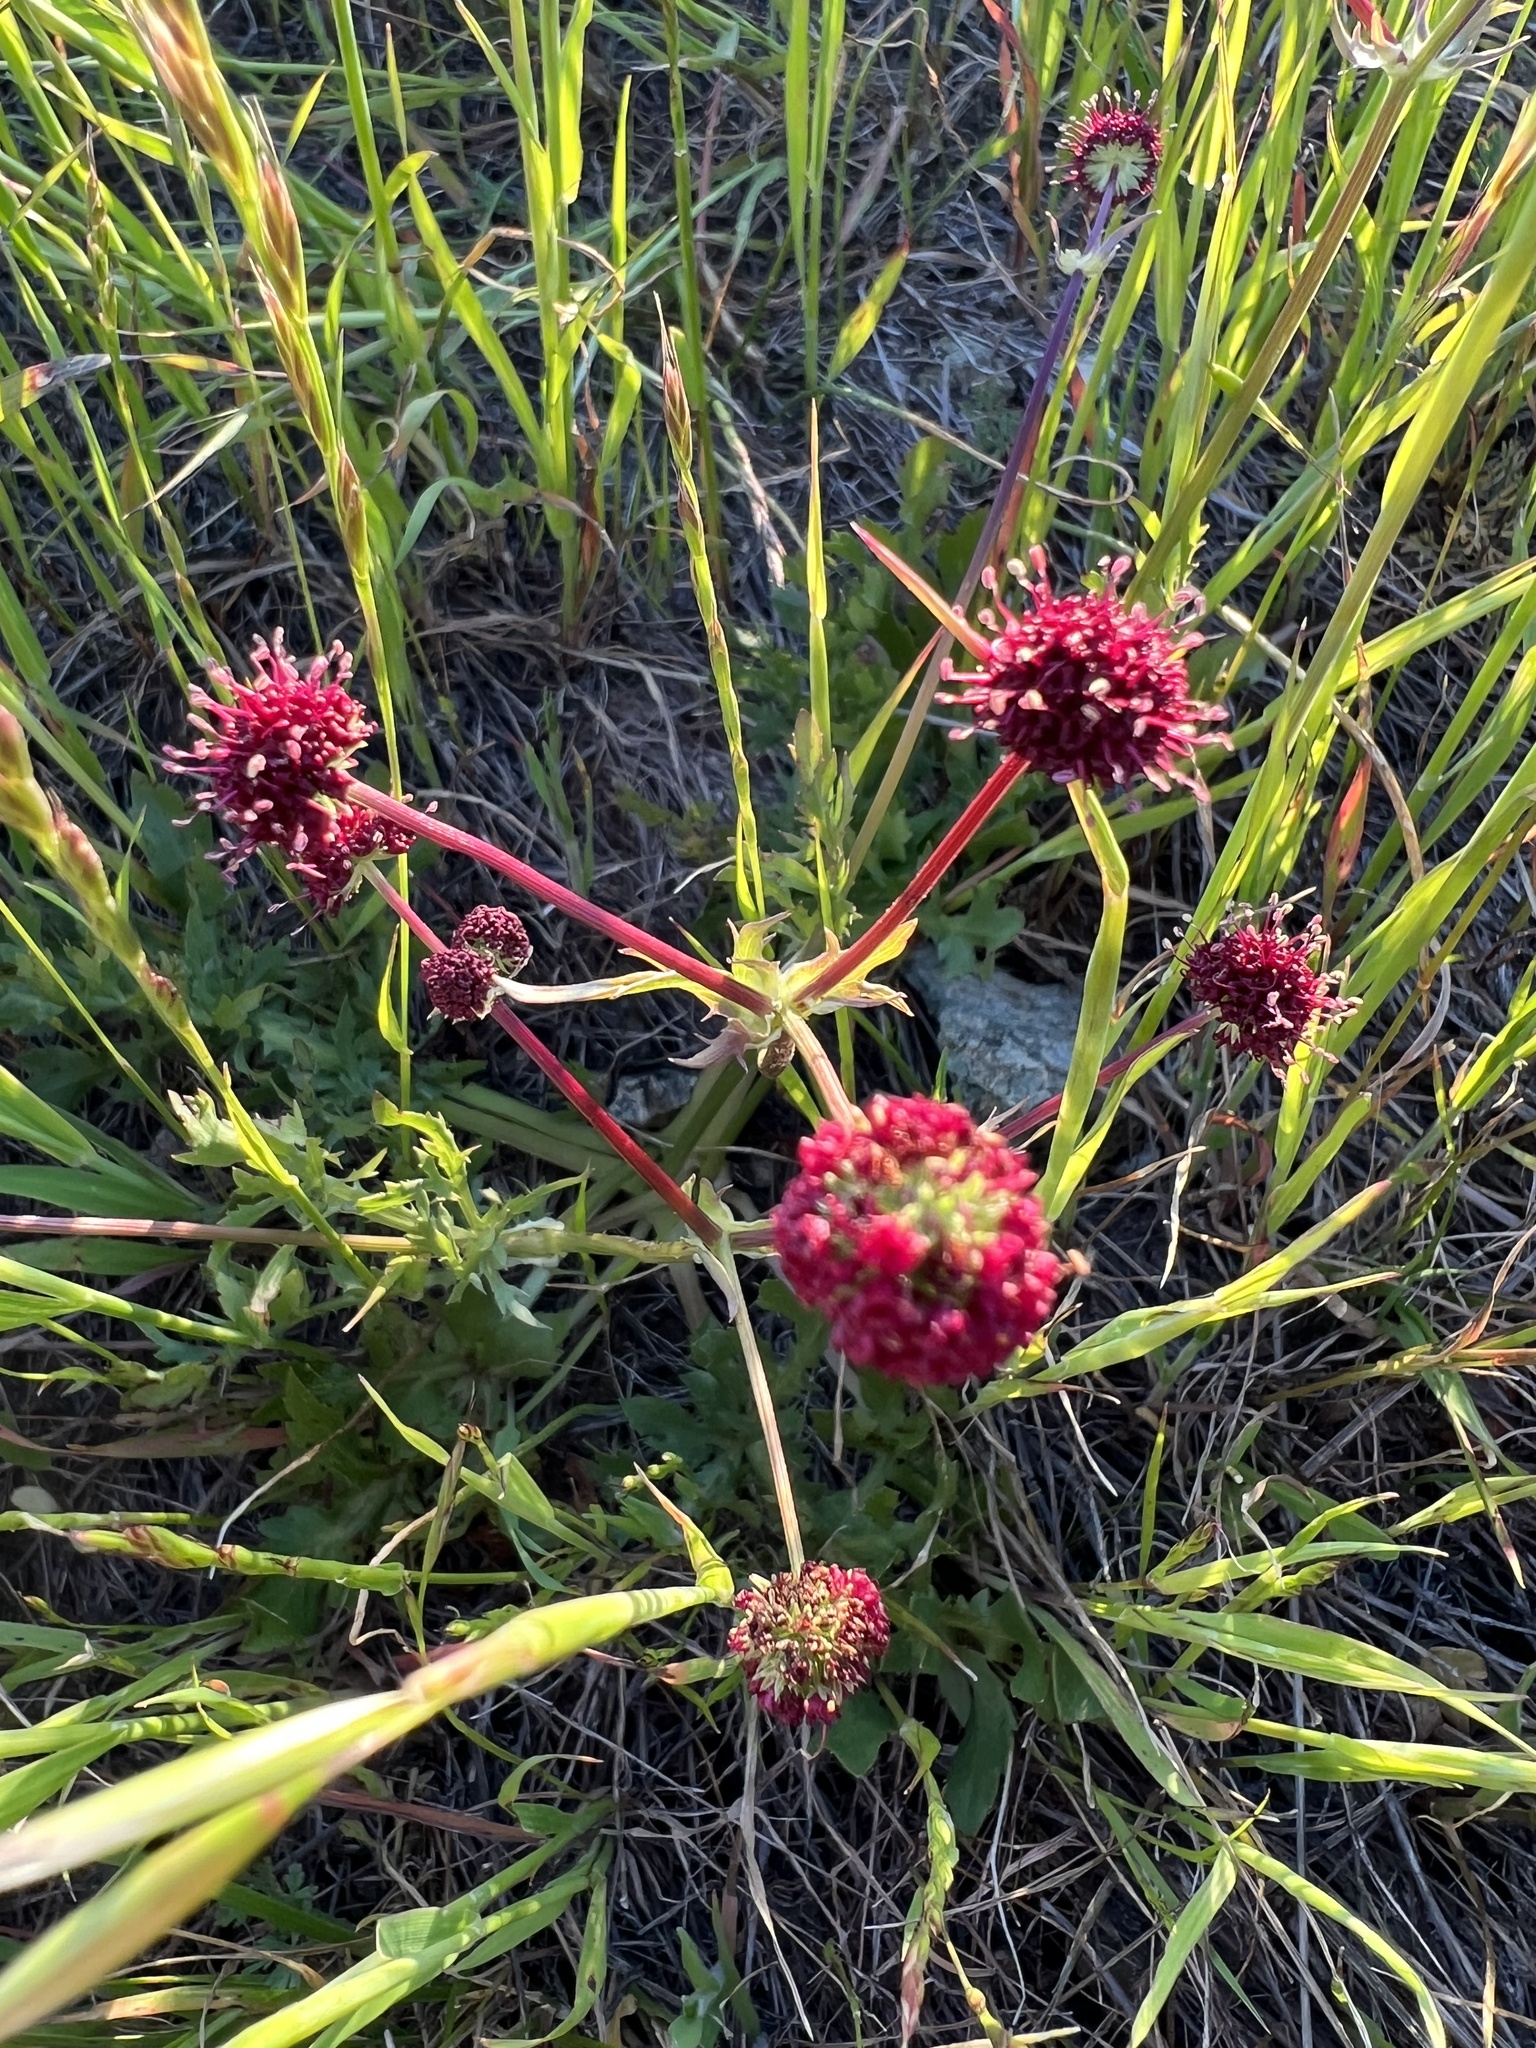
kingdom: Plantae
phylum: Tracheophyta
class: Magnoliopsida
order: Apiales
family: Apiaceae
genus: Sanicula
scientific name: Sanicula bipinnatifida
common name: Shoe-buttons
